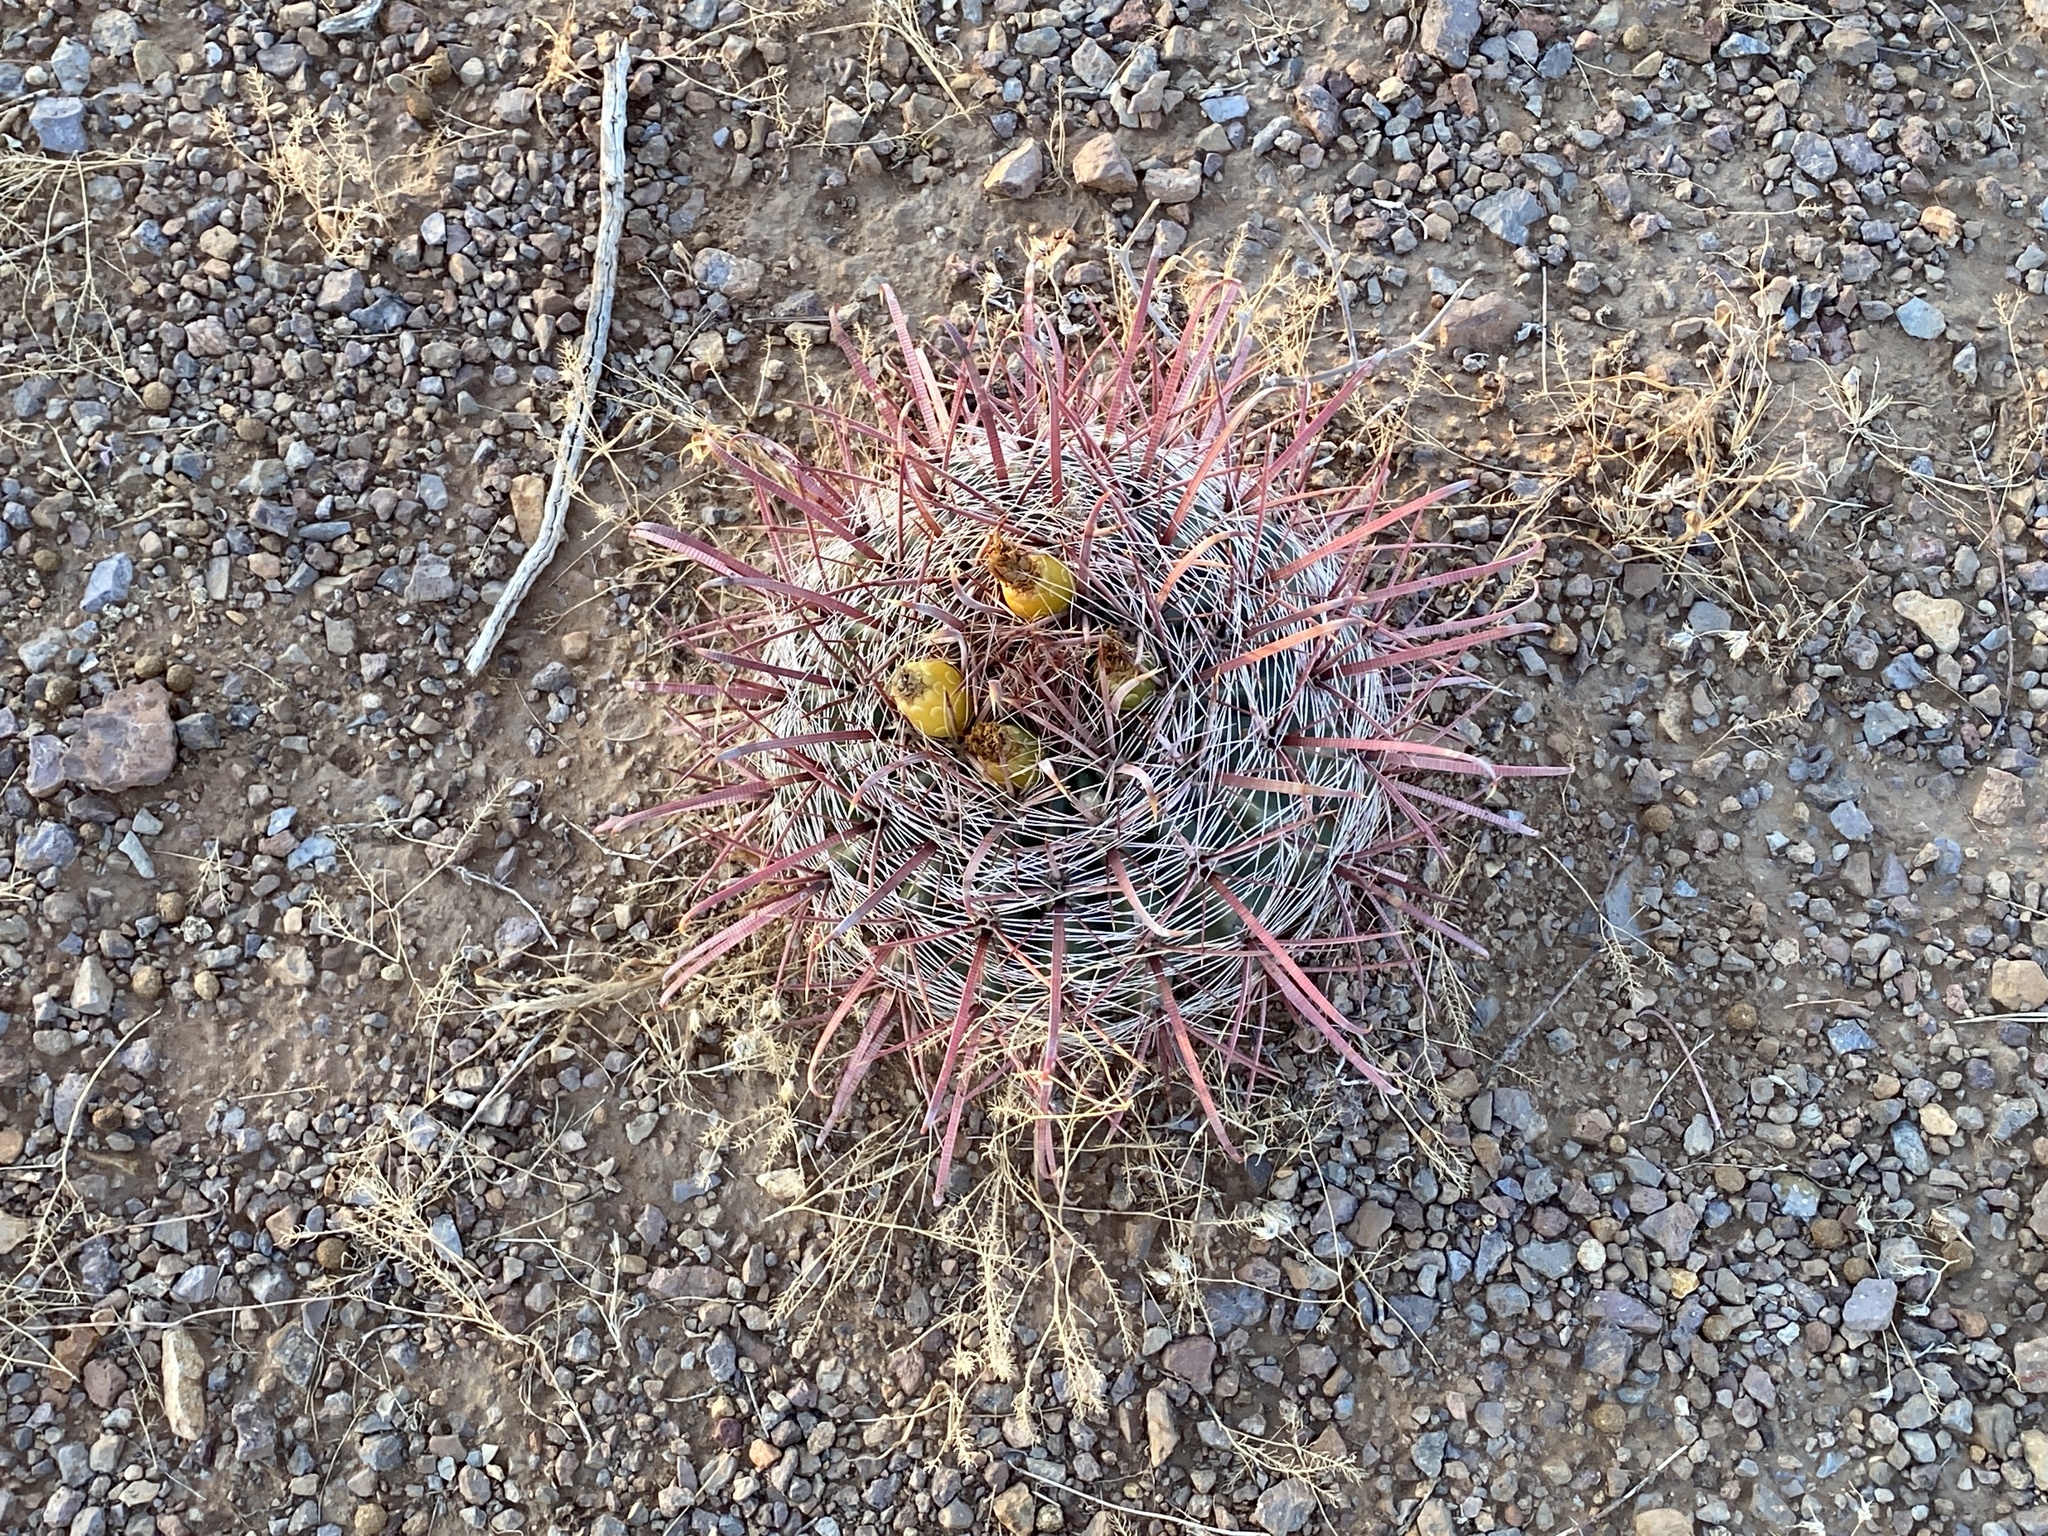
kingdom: Plantae
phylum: Tracheophyta
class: Magnoliopsida
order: Caryophyllales
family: Cactaceae
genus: Ferocactus
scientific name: Ferocactus wislizeni
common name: Candy barrel cactus
